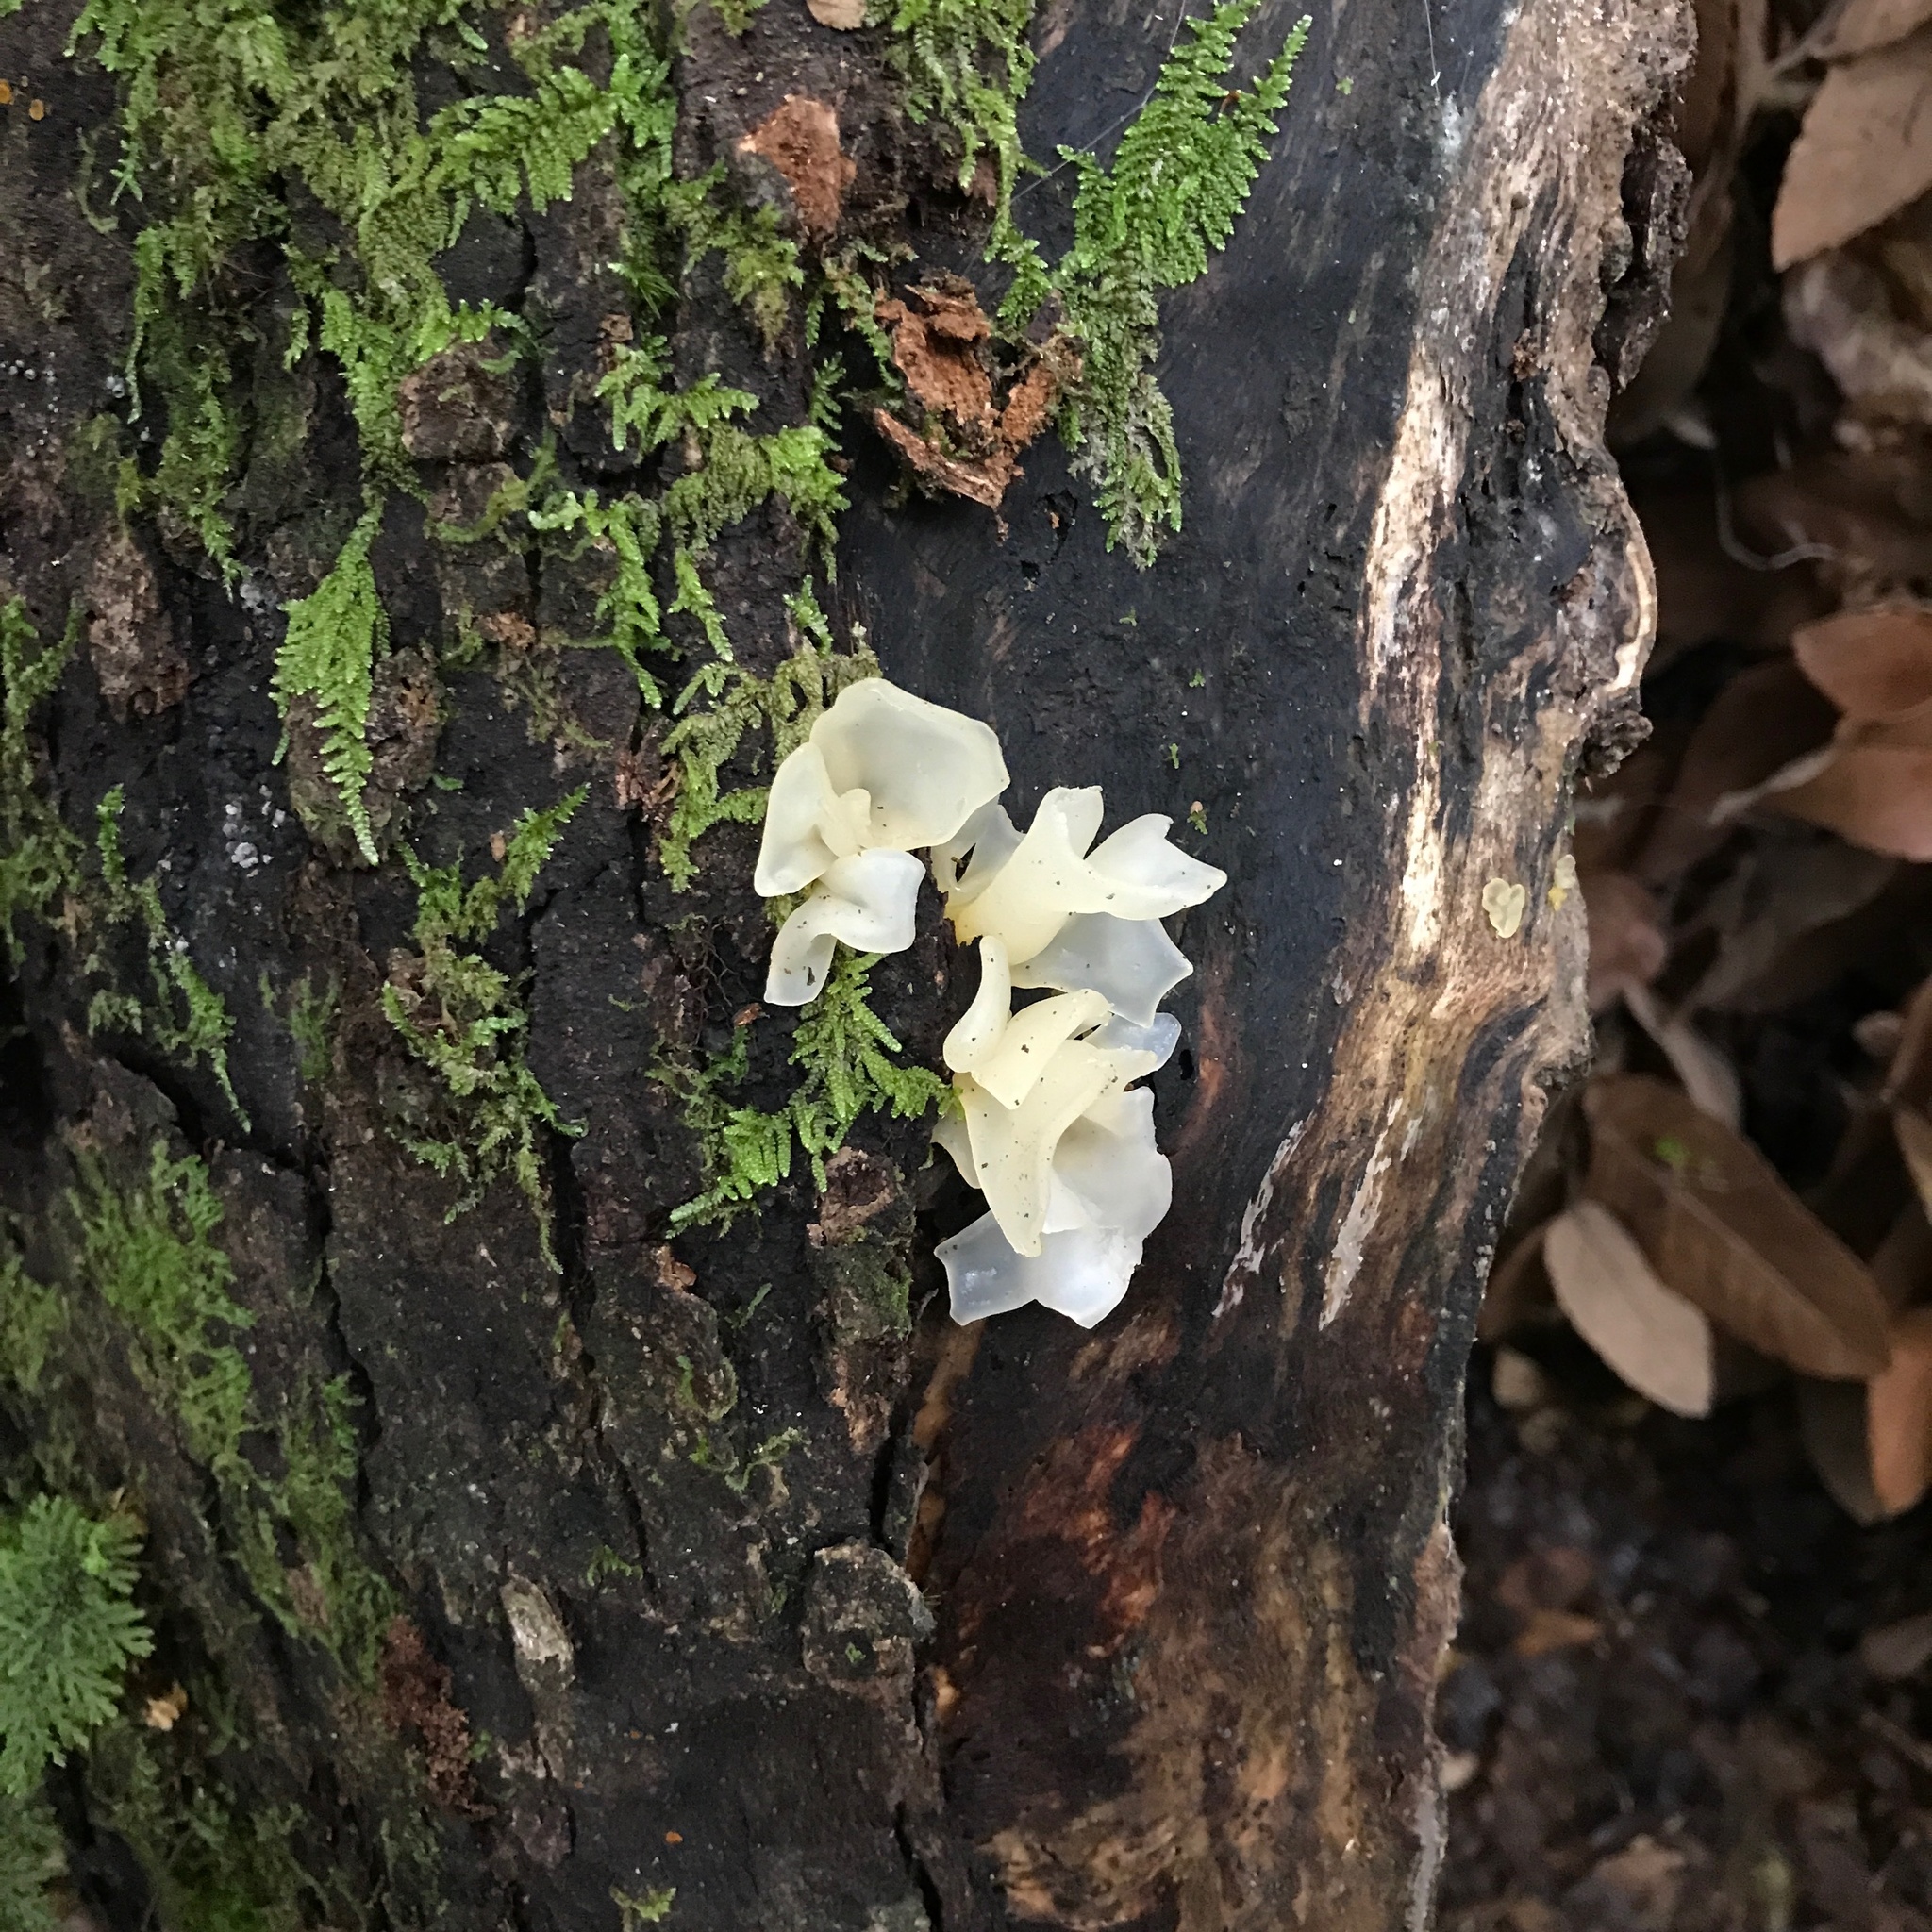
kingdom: Fungi
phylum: Basidiomycota
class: Agaricomycetes
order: Auriculariales
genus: Ductifera
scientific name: Ductifera pululahuana
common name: White jelly fungus
